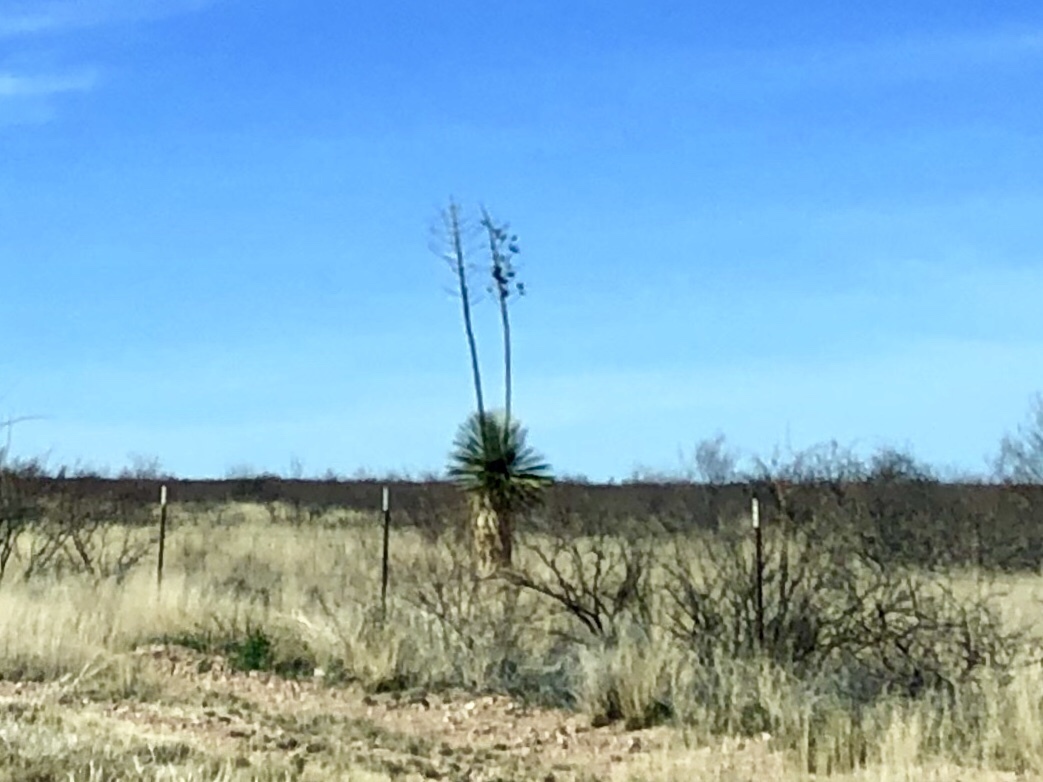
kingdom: Plantae
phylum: Tracheophyta
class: Liliopsida
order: Asparagales
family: Asparagaceae
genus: Yucca
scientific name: Yucca elata
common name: Palmella
